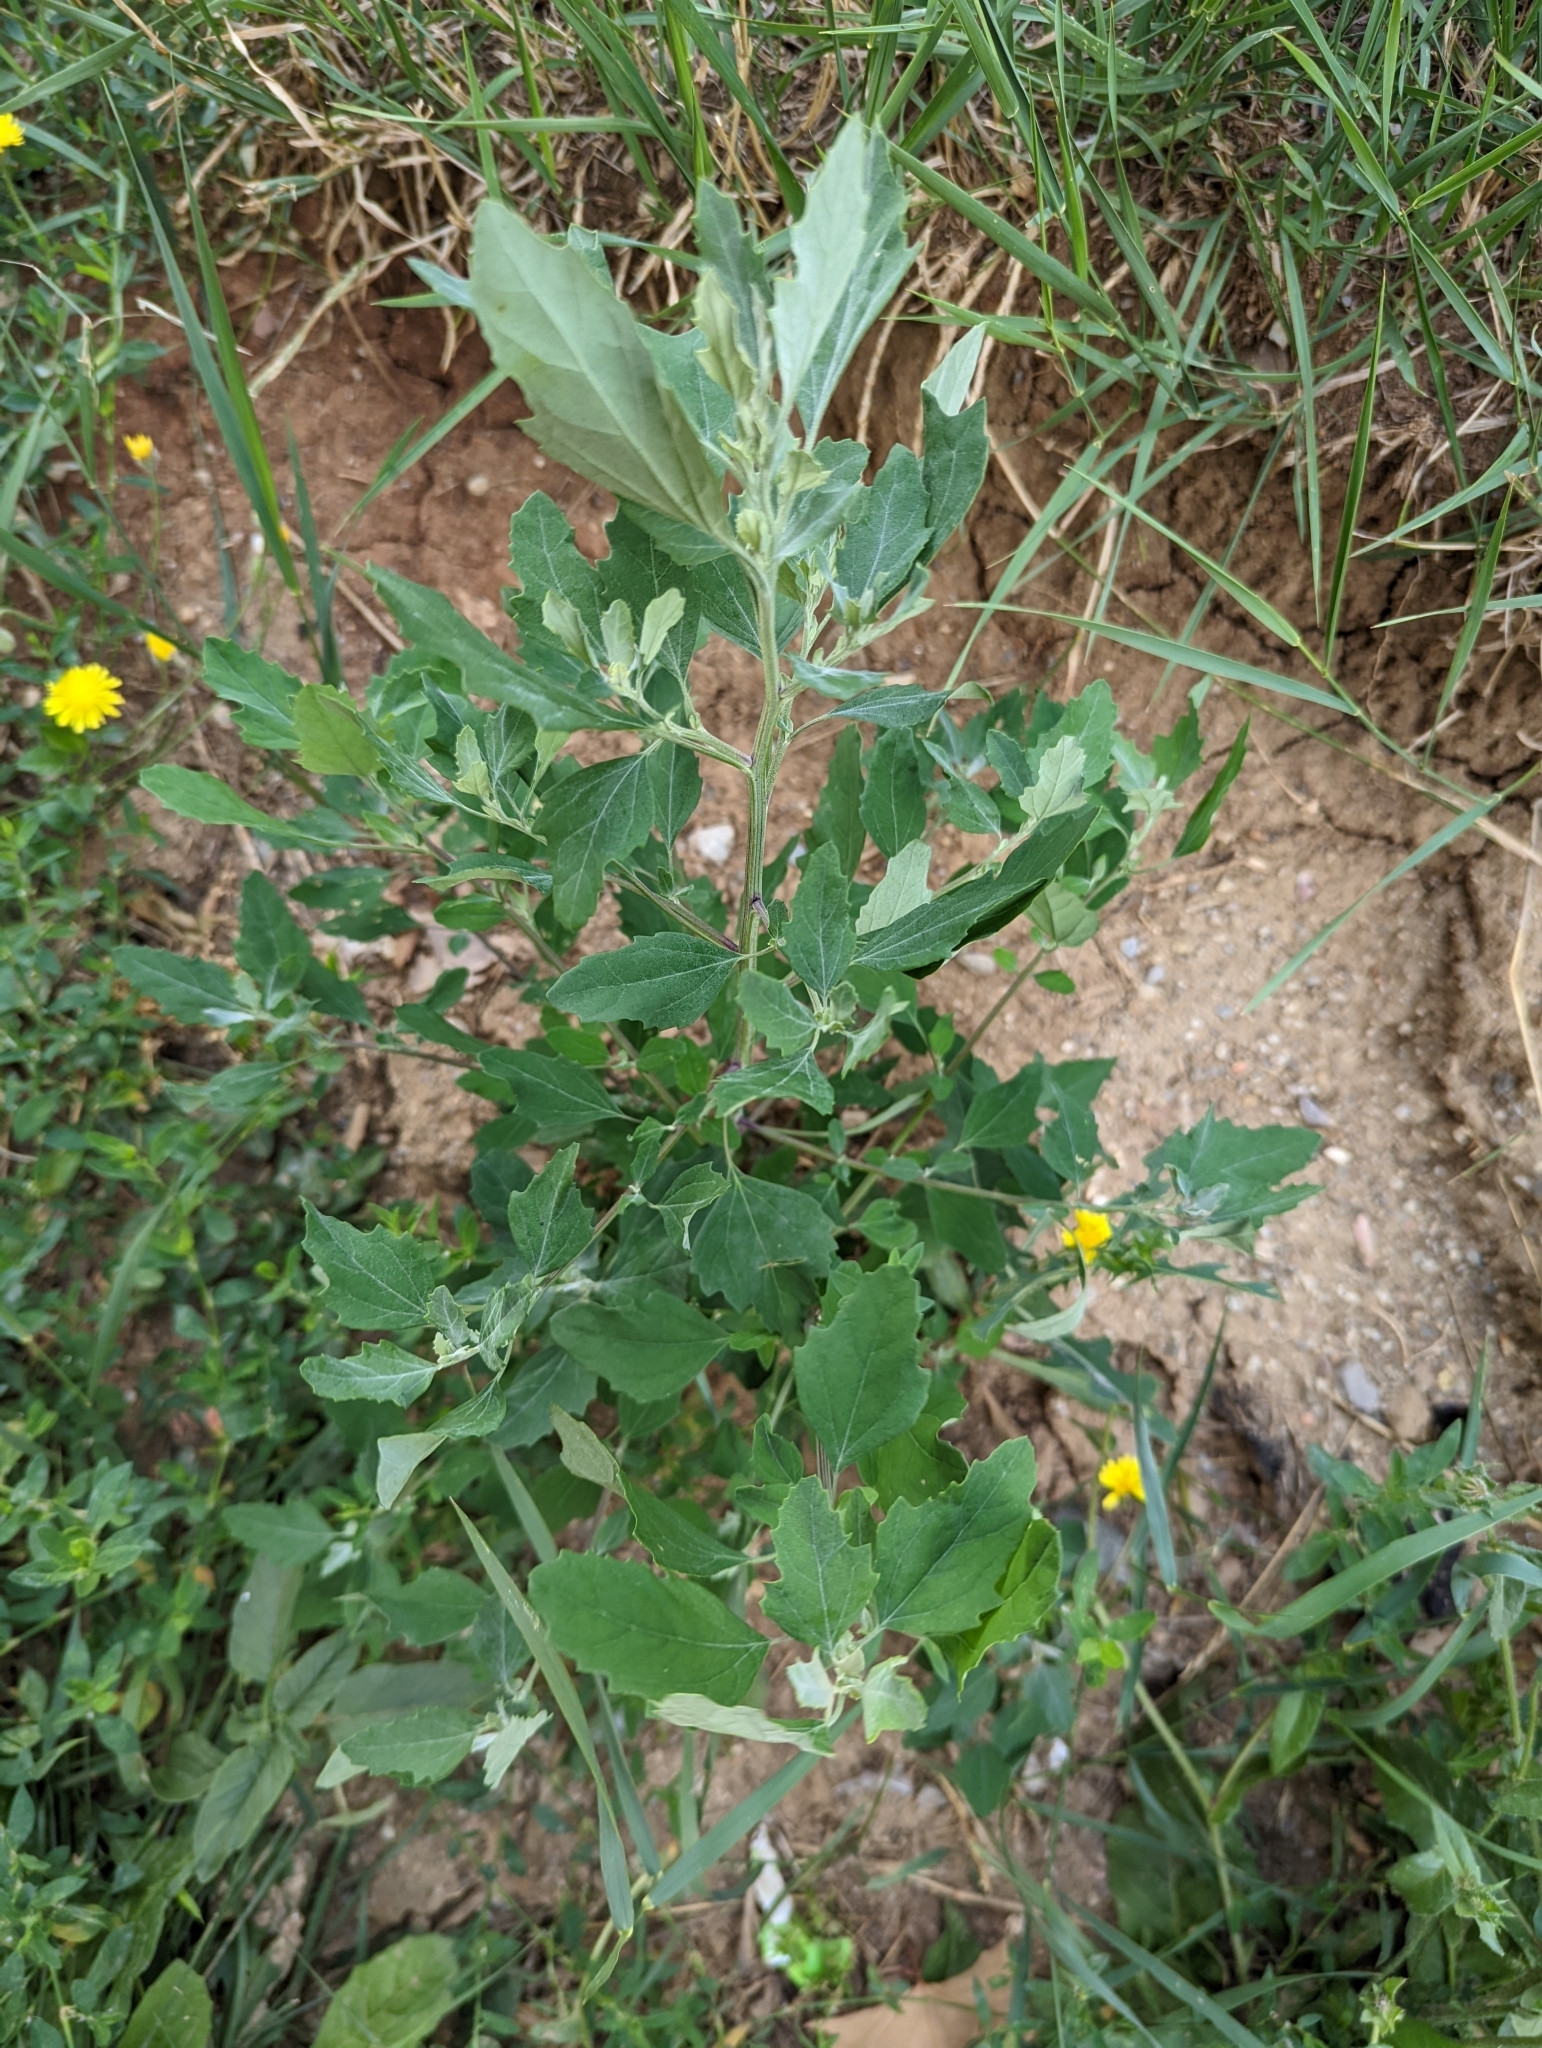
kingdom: Plantae
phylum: Tracheophyta
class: Magnoliopsida
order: Caryophyllales
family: Amaranthaceae
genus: Chenopodium
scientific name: Chenopodium album
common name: Fat-hen
